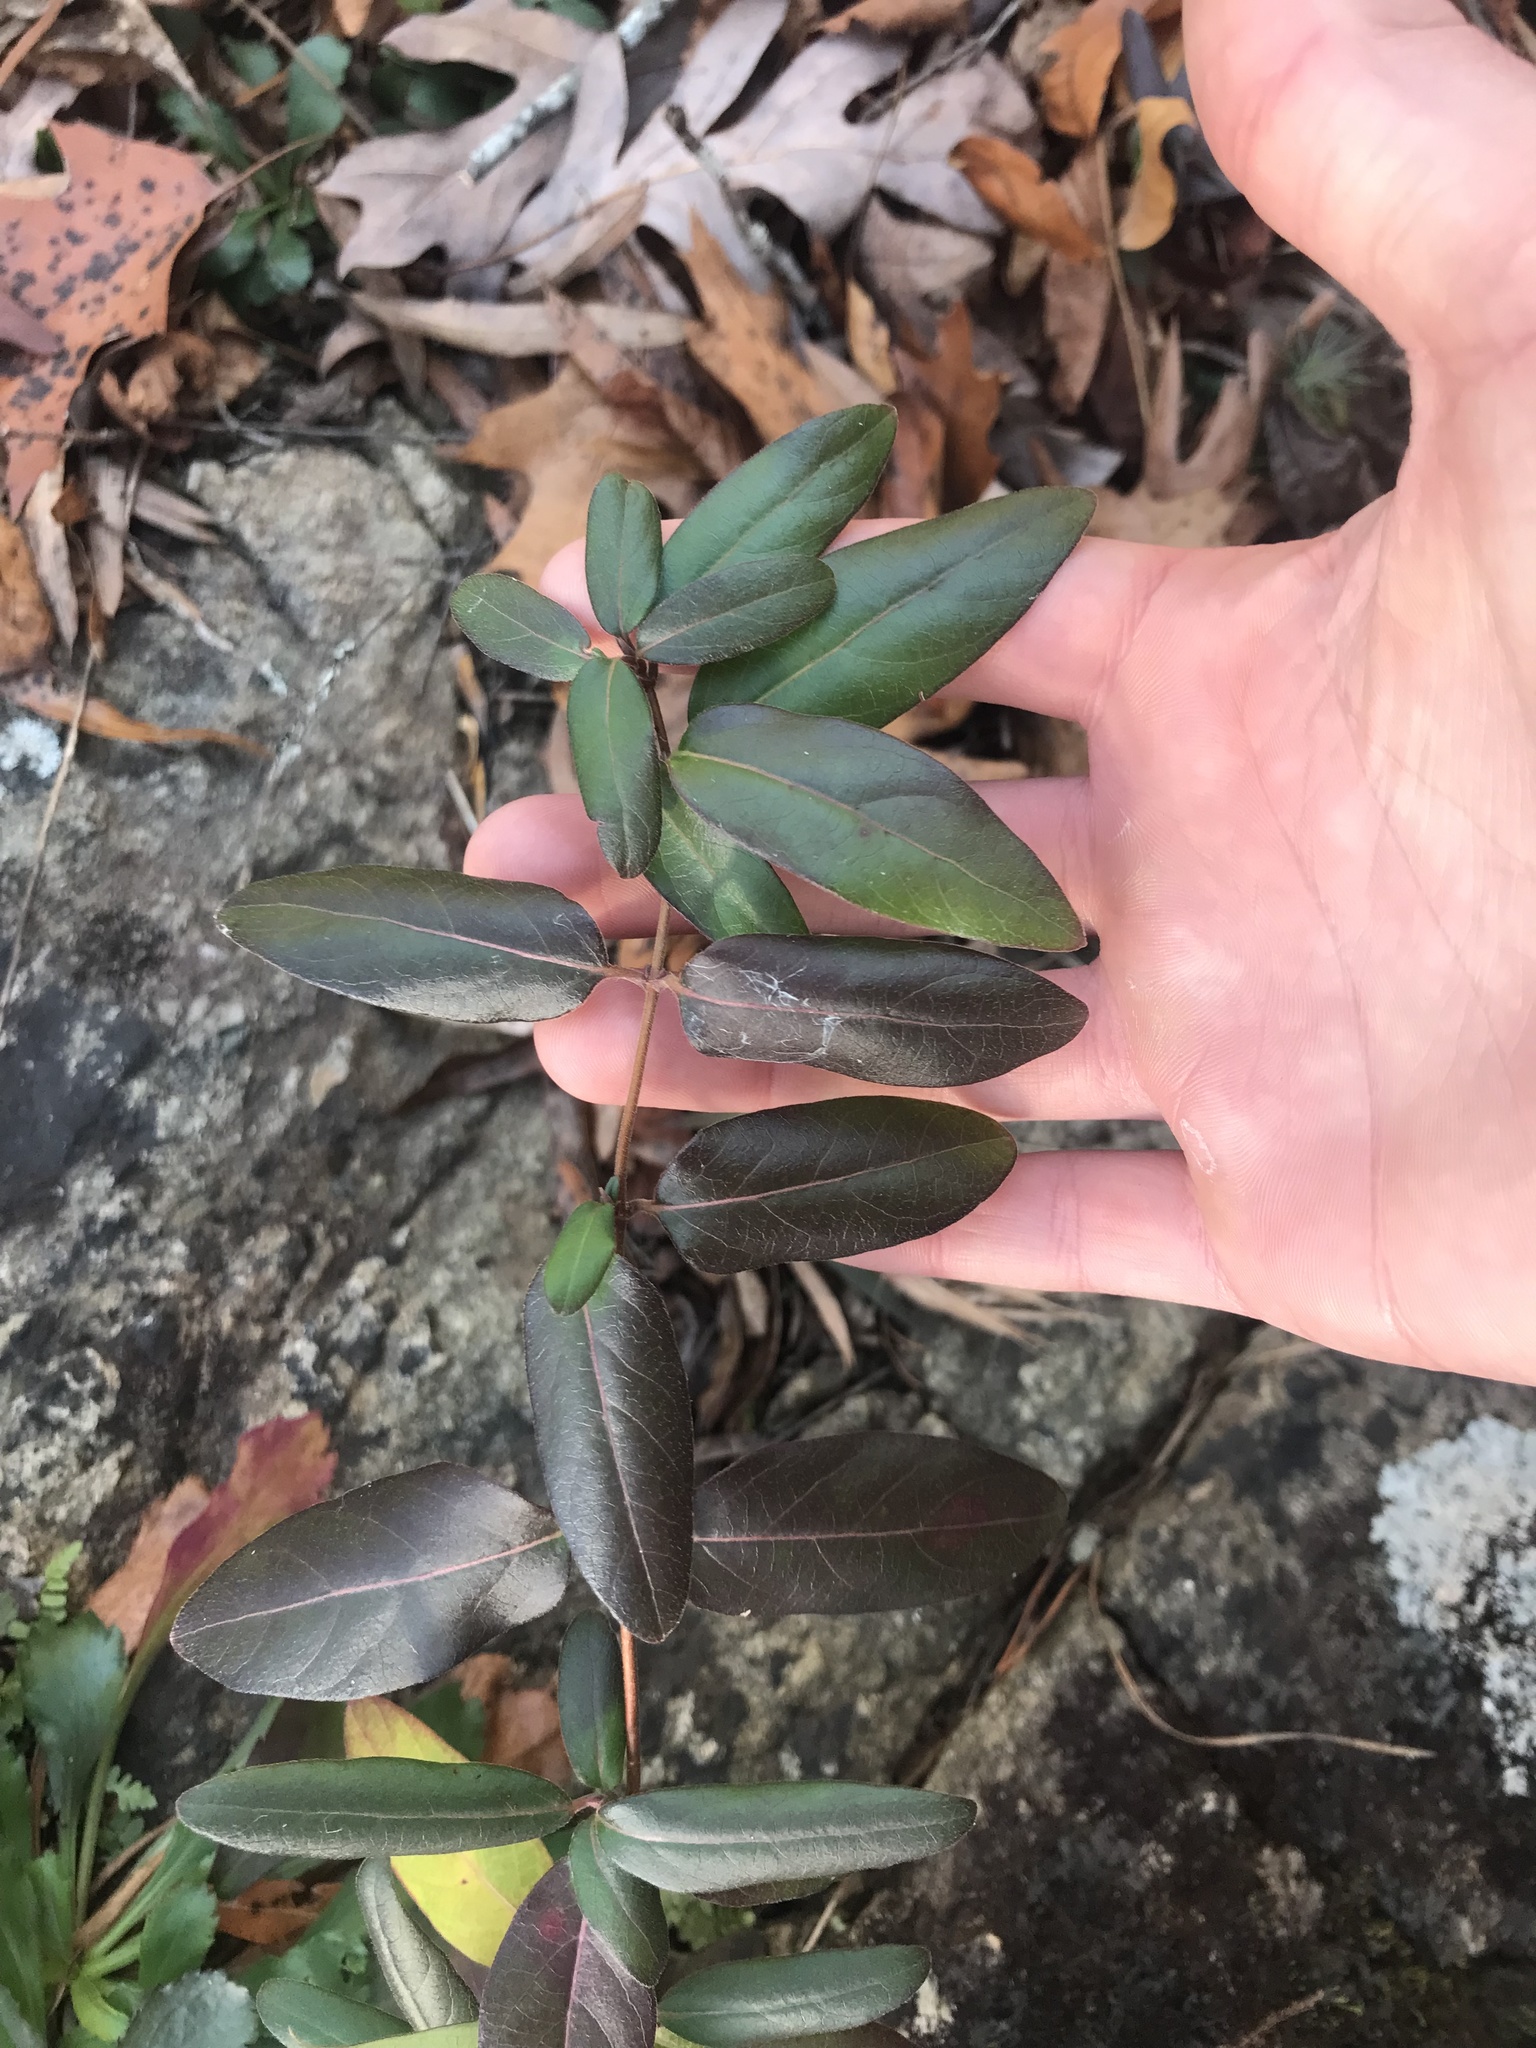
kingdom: Plantae
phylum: Tracheophyta
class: Magnoliopsida
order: Dipsacales
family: Caprifoliaceae
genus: Lonicera
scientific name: Lonicera japonica
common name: Japanese honeysuckle
